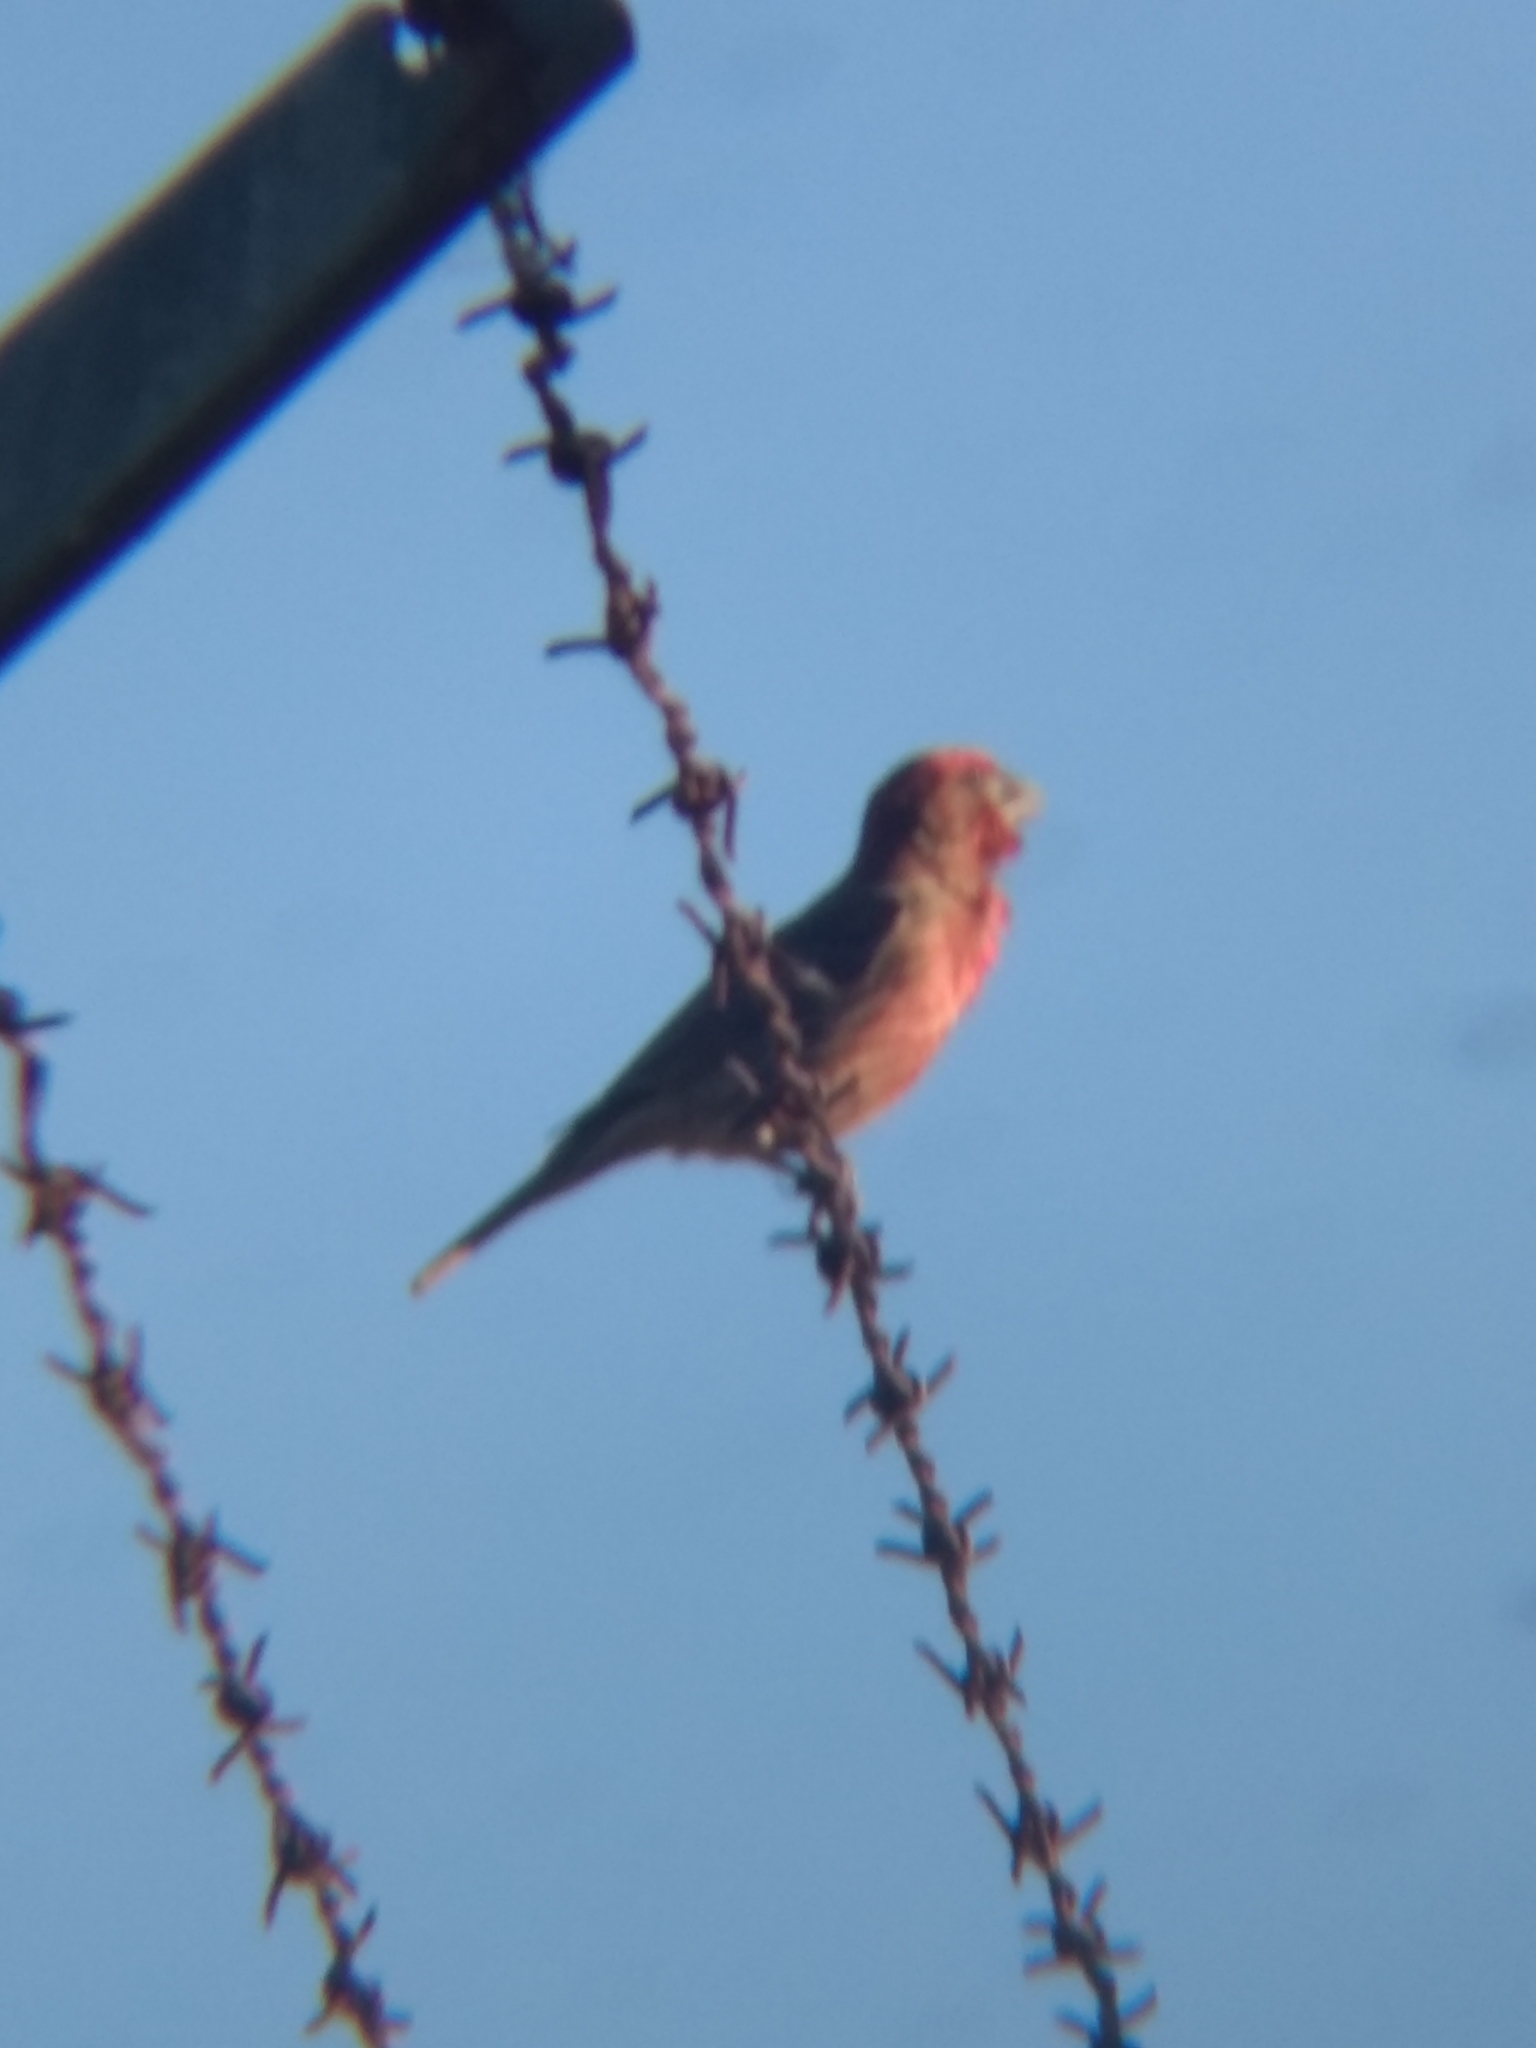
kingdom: Animalia
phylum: Chordata
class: Aves
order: Passeriformes
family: Fringillidae
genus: Haemorhous
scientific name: Haemorhous mexicanus
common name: House finch
